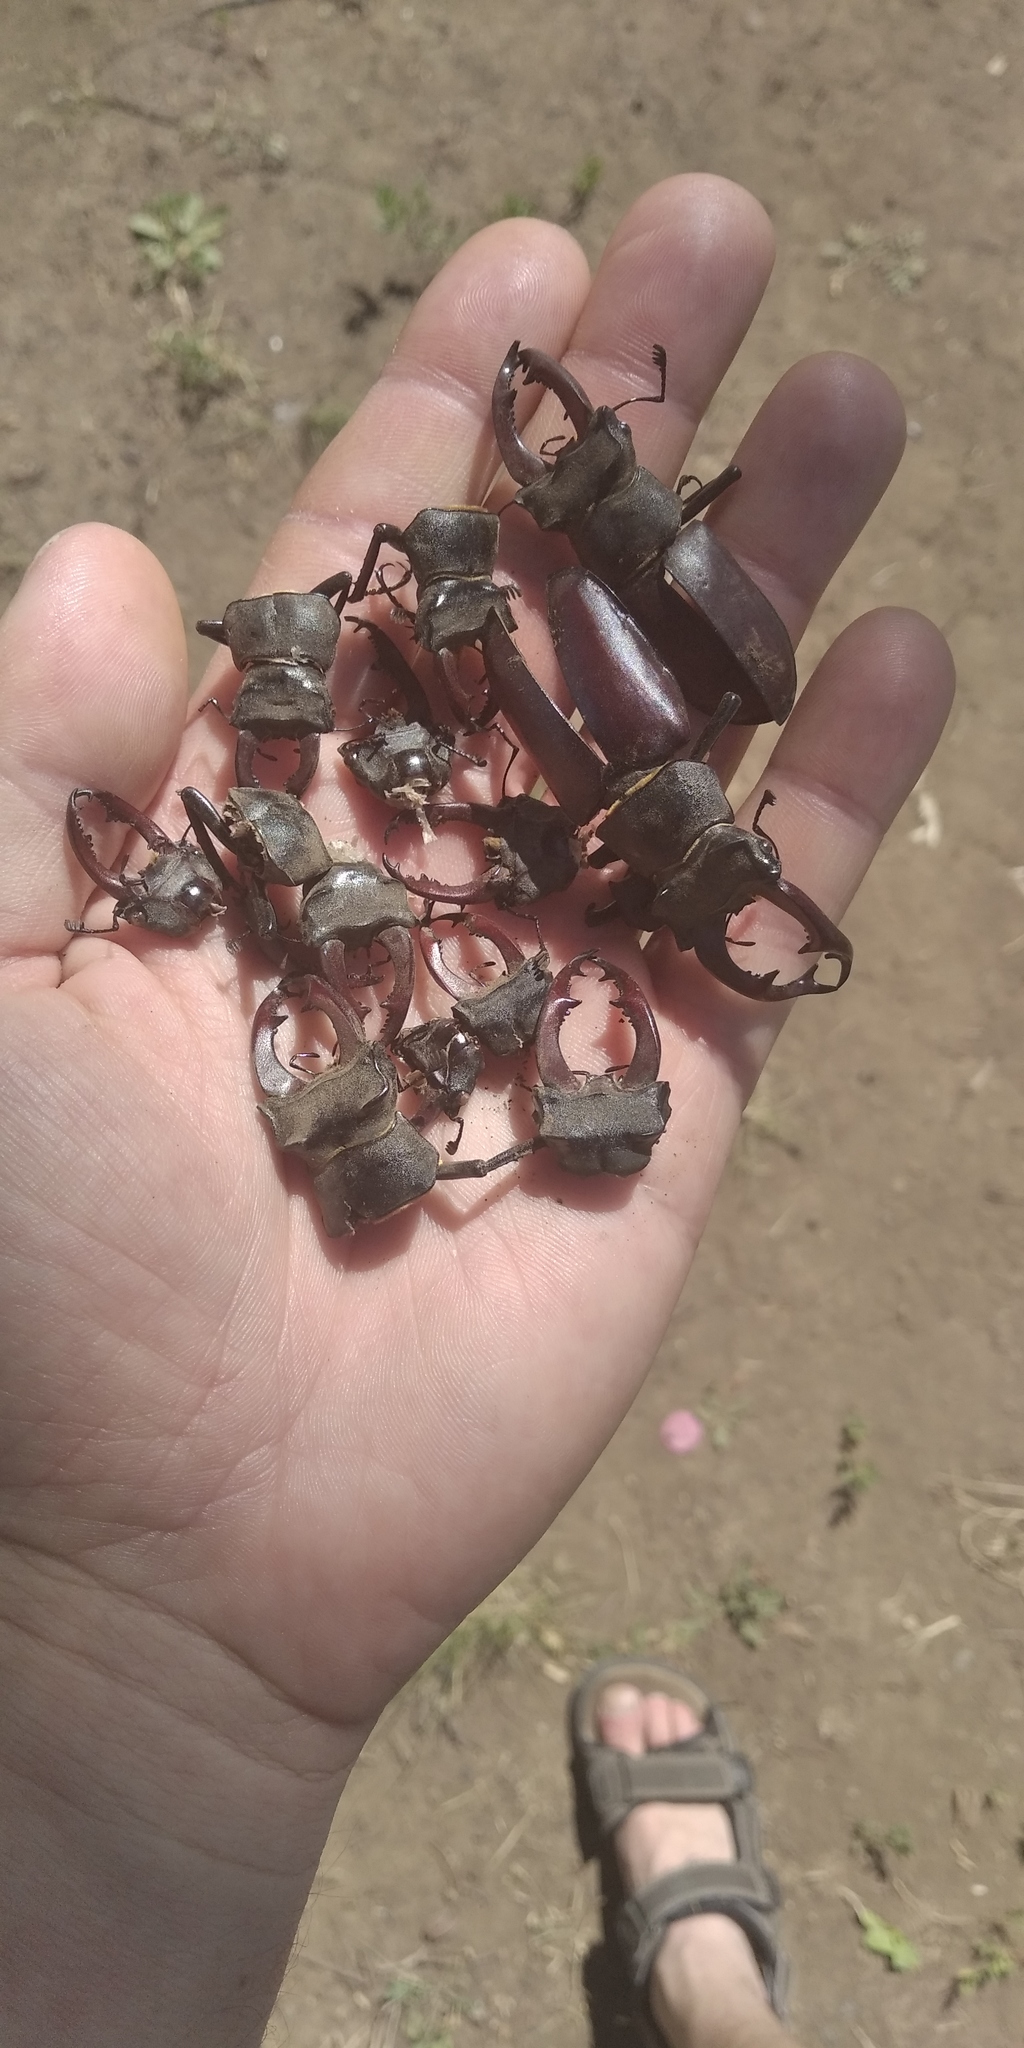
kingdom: Animalia
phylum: Arthropoda
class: Insecta
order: Coleoptera
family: Lucanidae
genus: Lucanus
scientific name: Lucanus cervus
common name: Stag beetle
